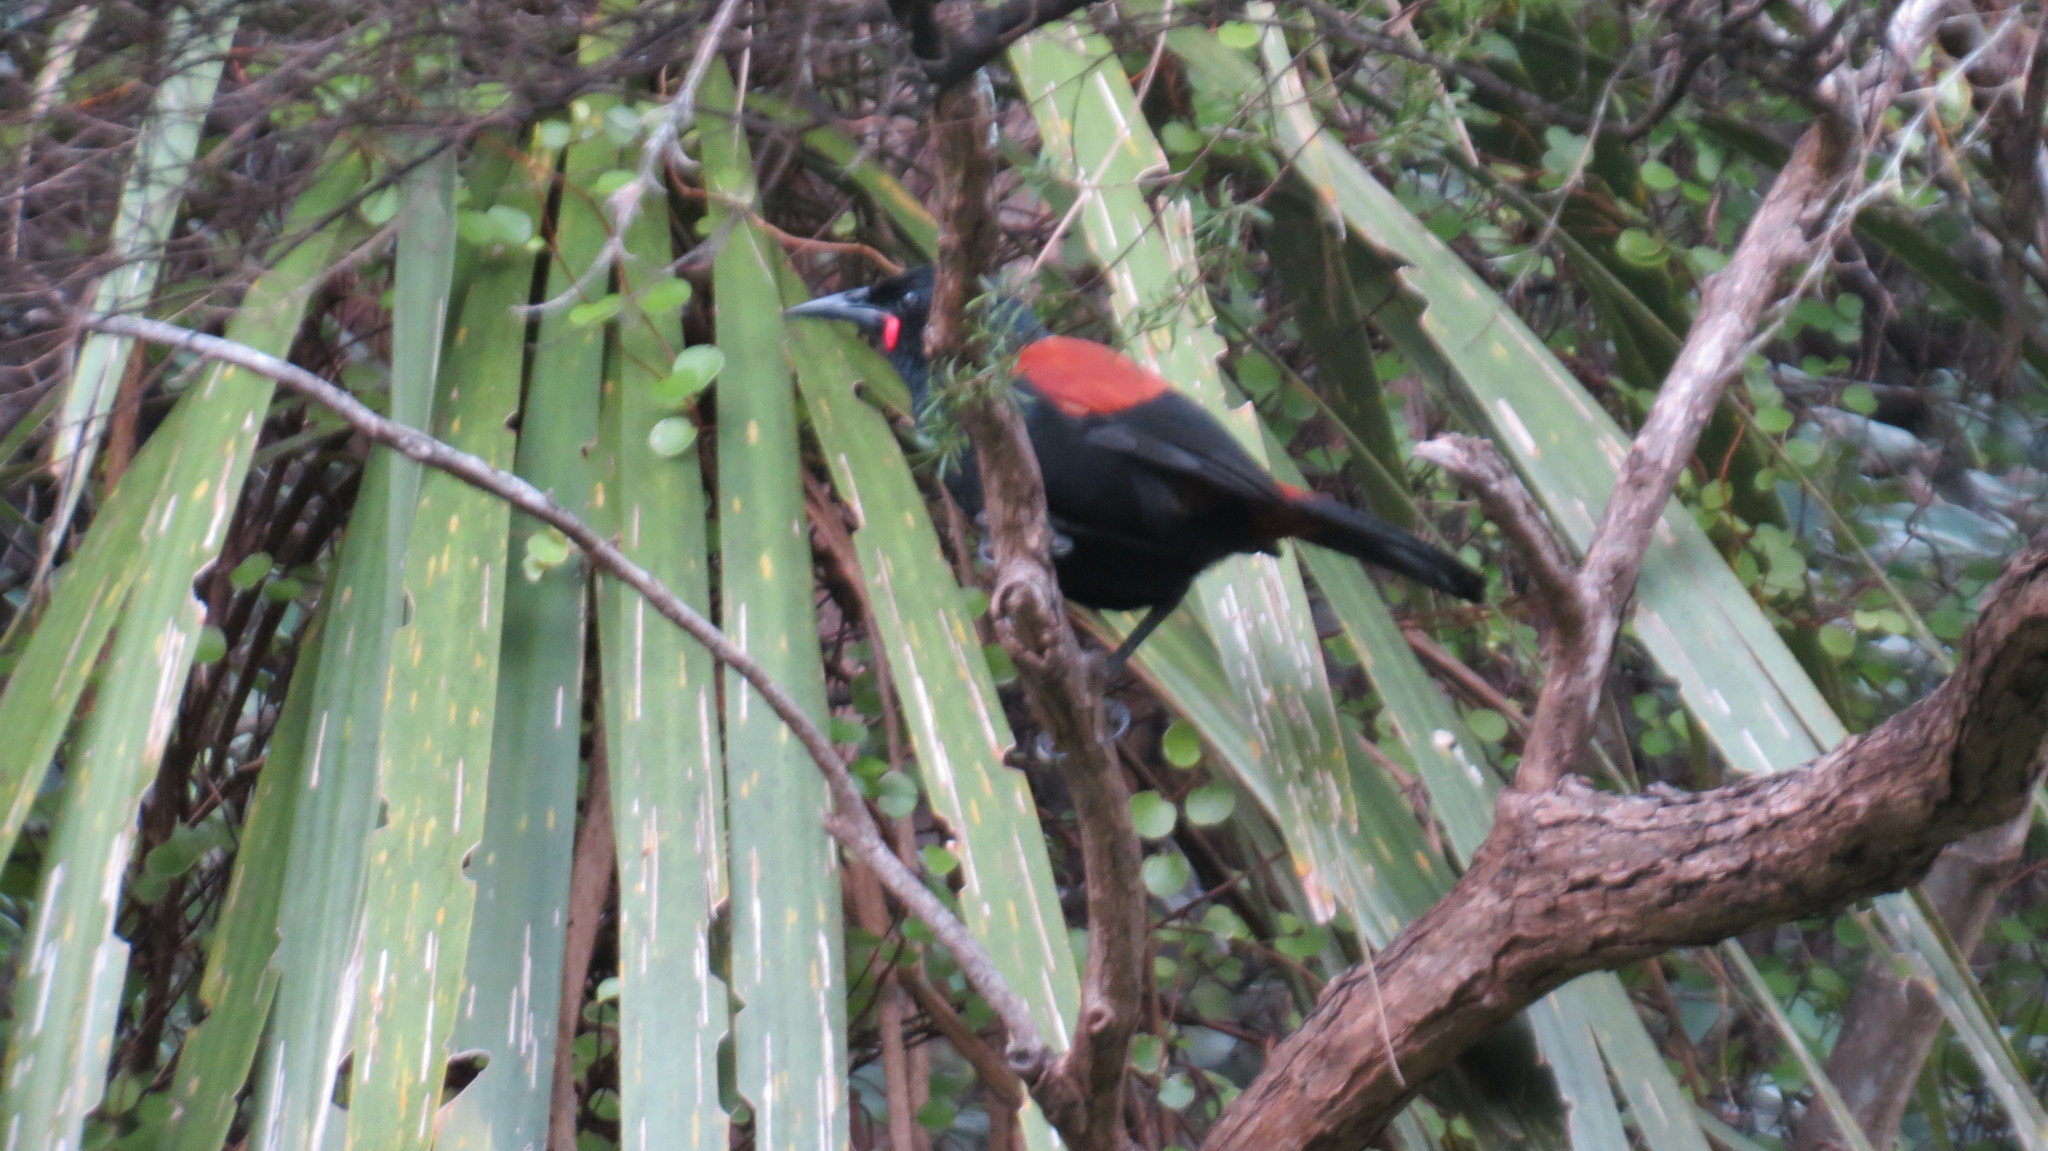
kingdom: Animalia
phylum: Chordata
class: Aves
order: Passeriformes
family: Callaeatidae
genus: Philesturnus
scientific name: Philesturnus carunculatus
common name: South island saddleback
